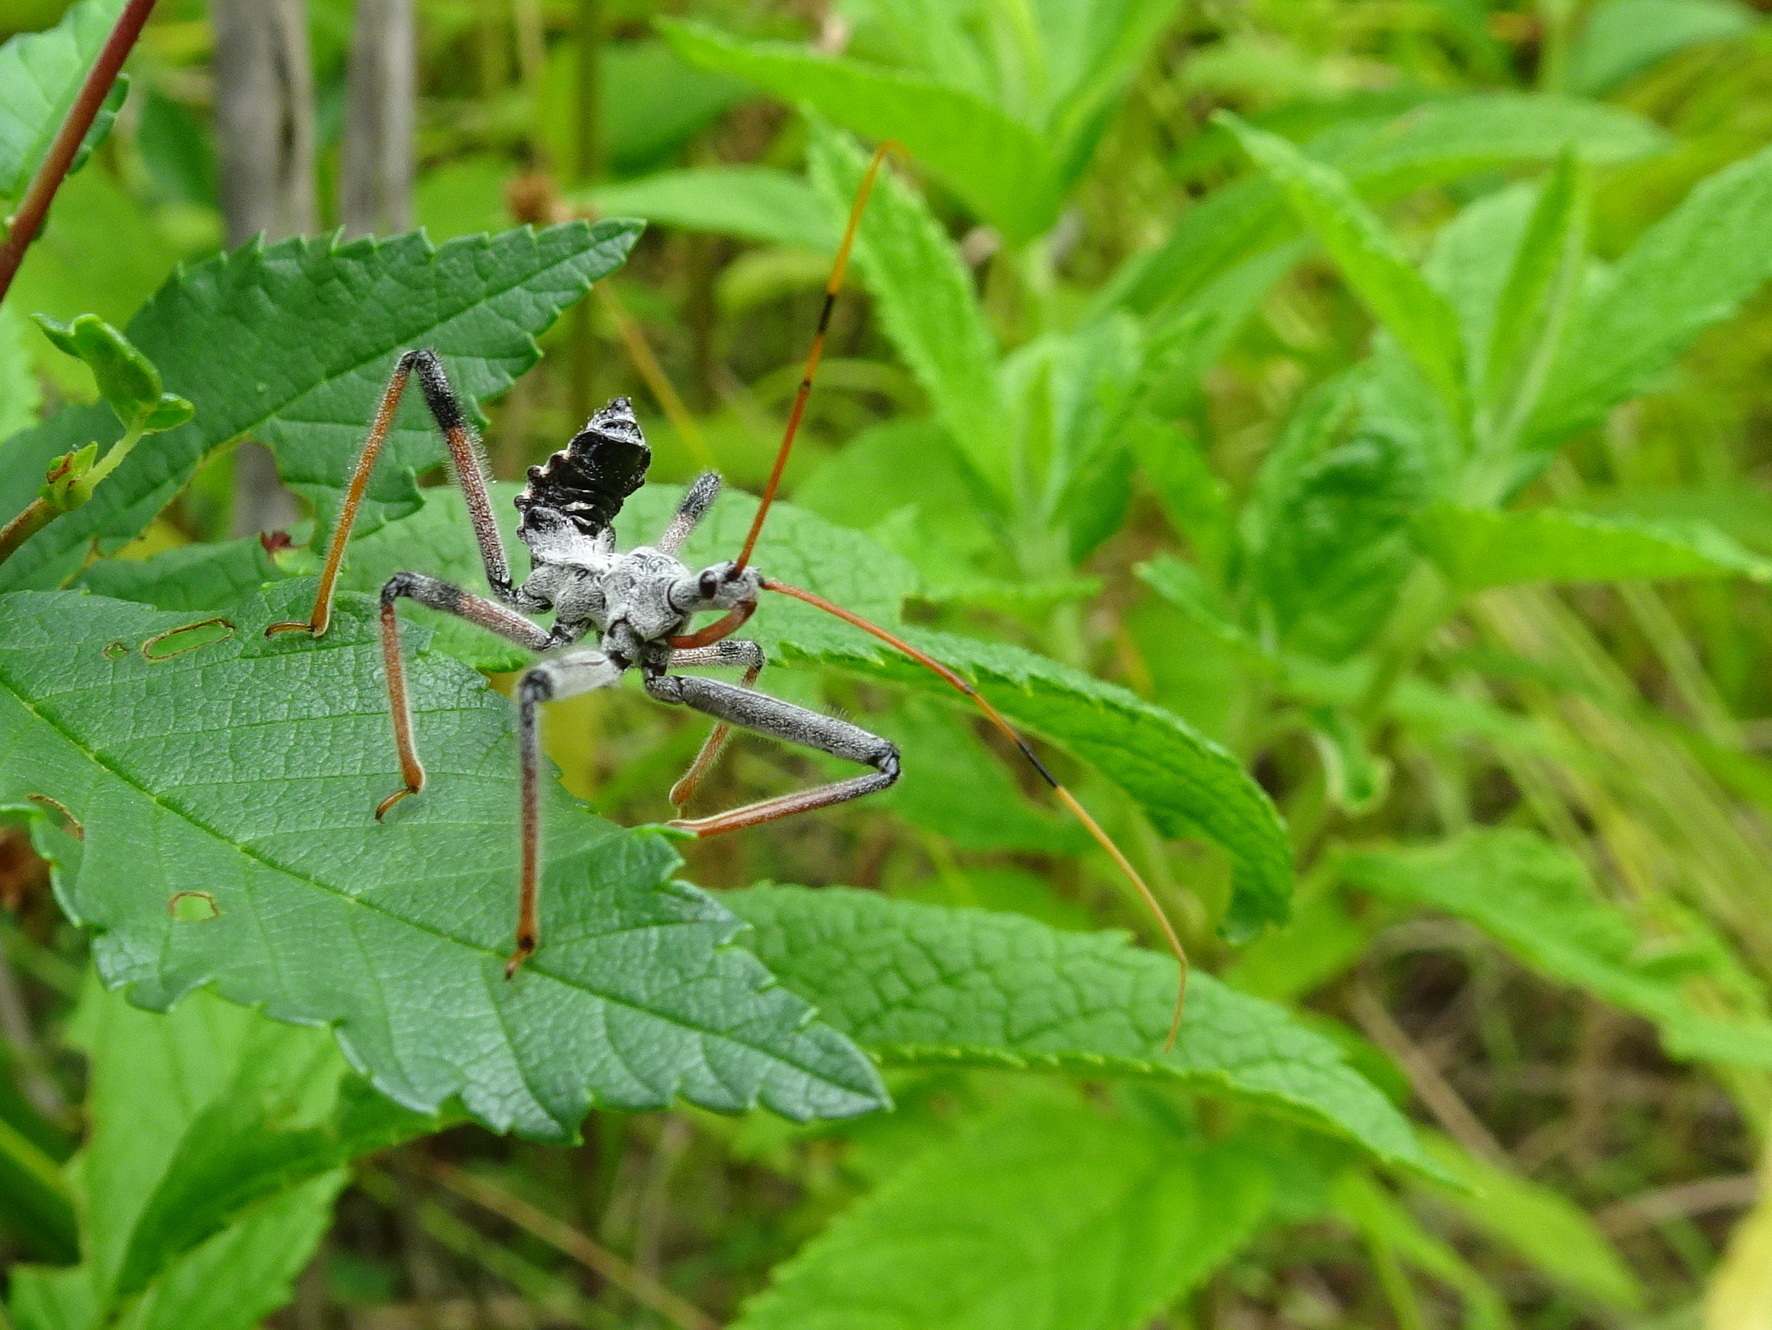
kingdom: Animalia
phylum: Arthropoda
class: Insecta
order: Hemiptera
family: Reduviidae
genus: Arilus
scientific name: Arilus cristatus
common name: North american wheel bug
